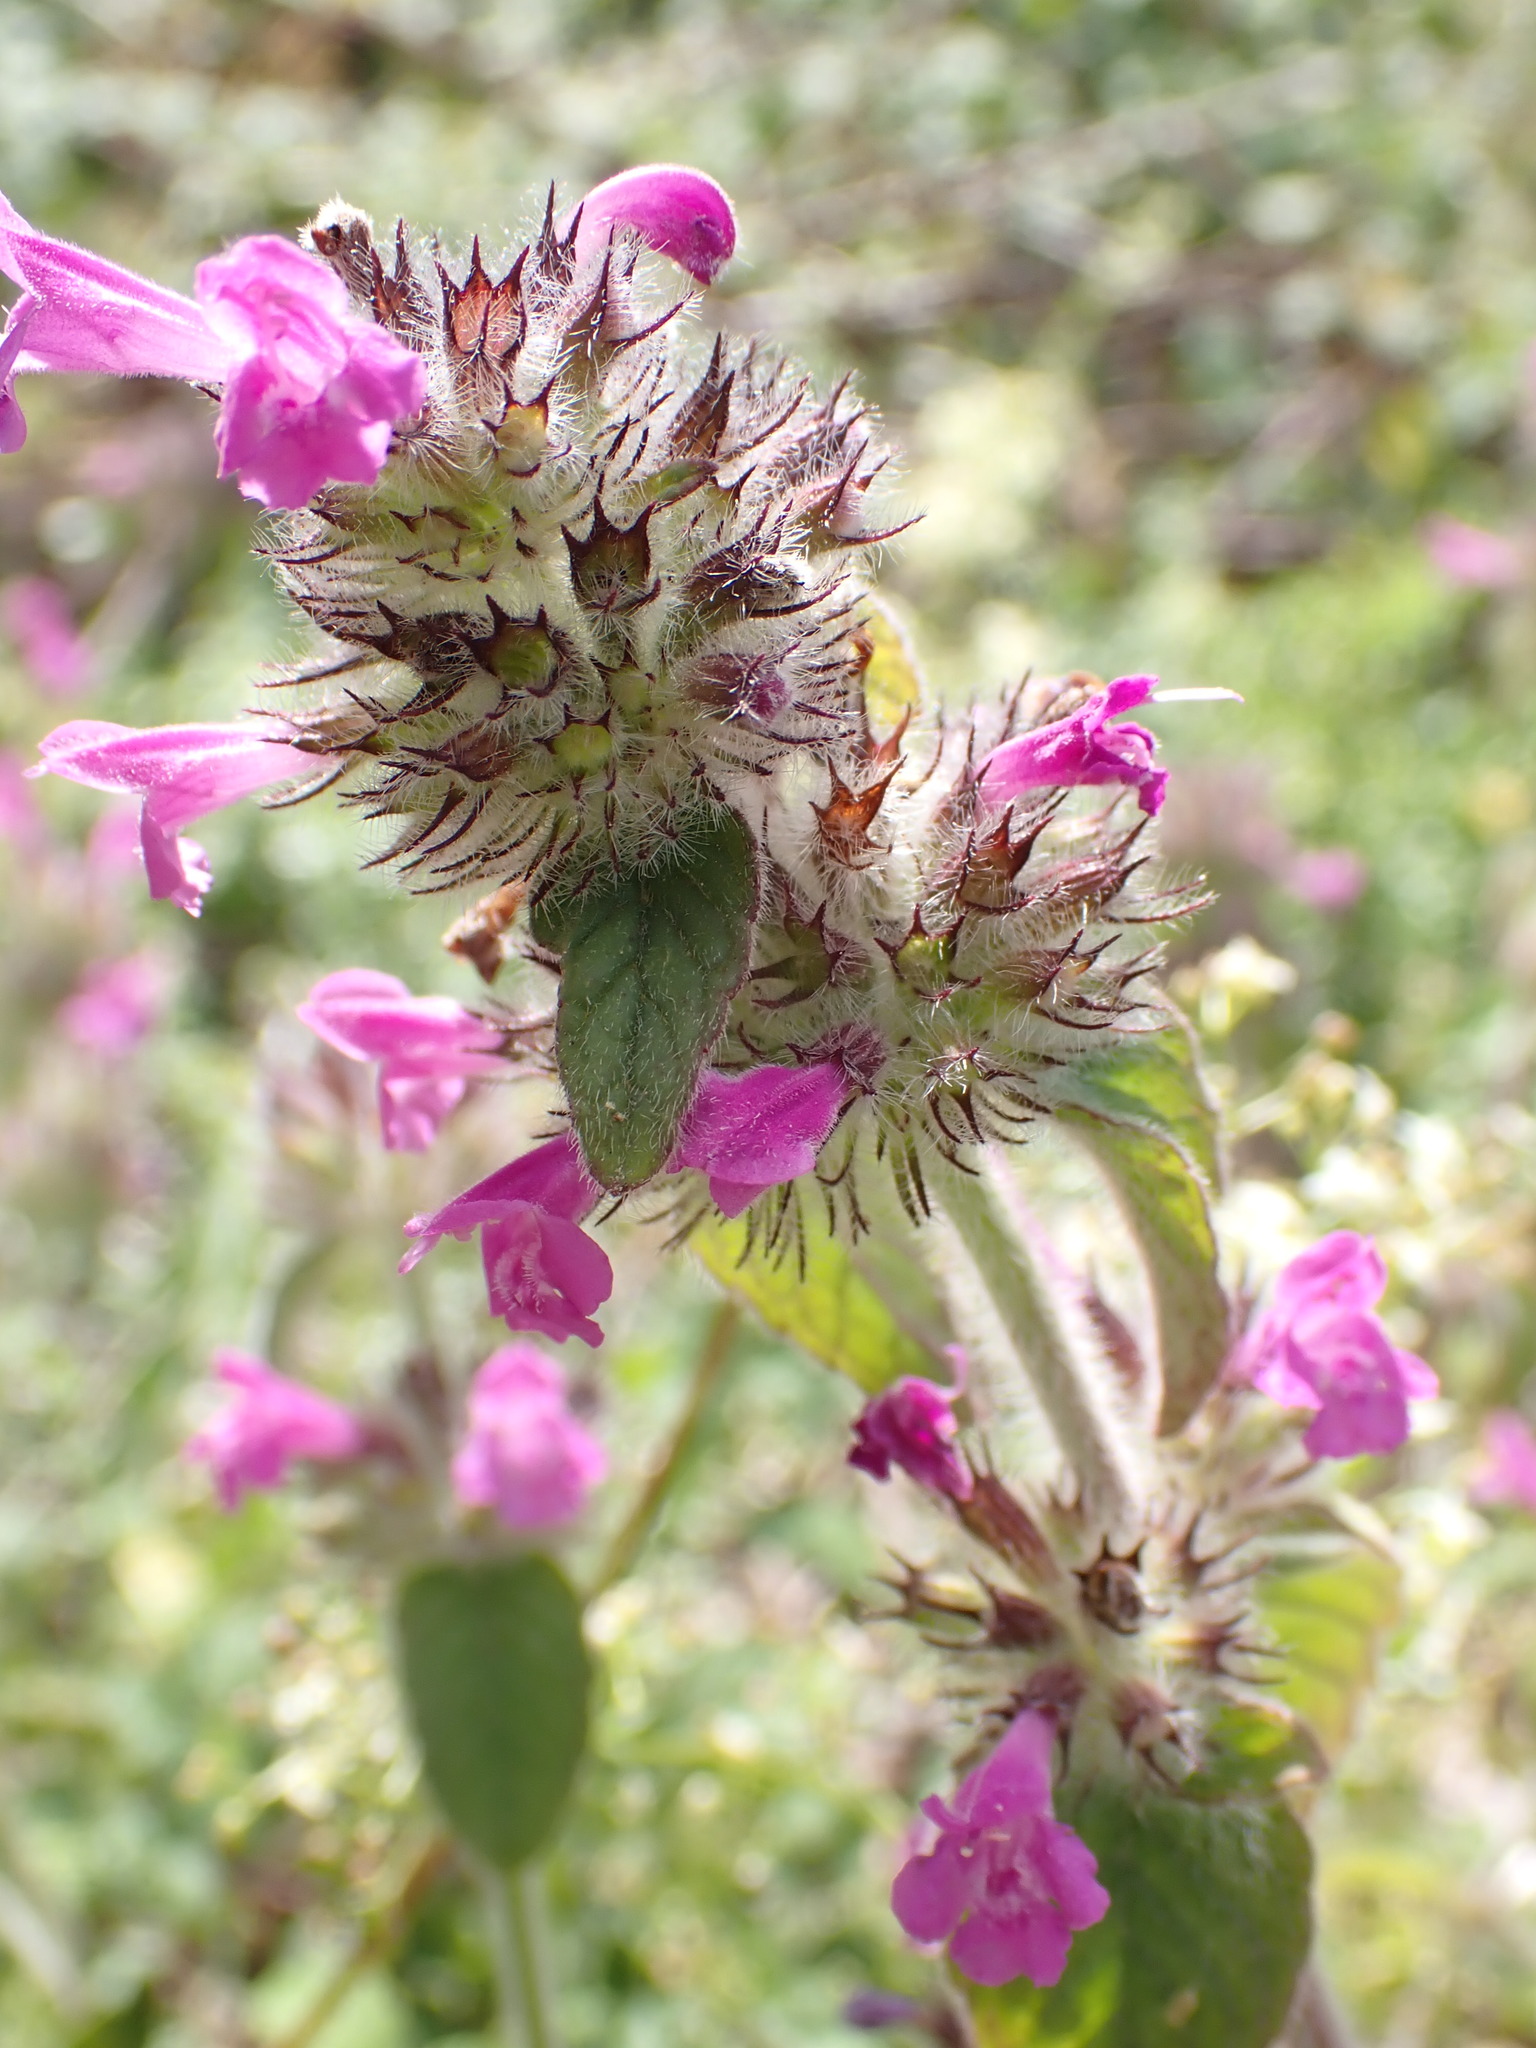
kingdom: Plantae
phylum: Tracheophyta
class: Magnoliopsida
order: Lamiales
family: Lamiaceae
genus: Clinopodium
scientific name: Clinopodium vulgare
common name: Wild basil
